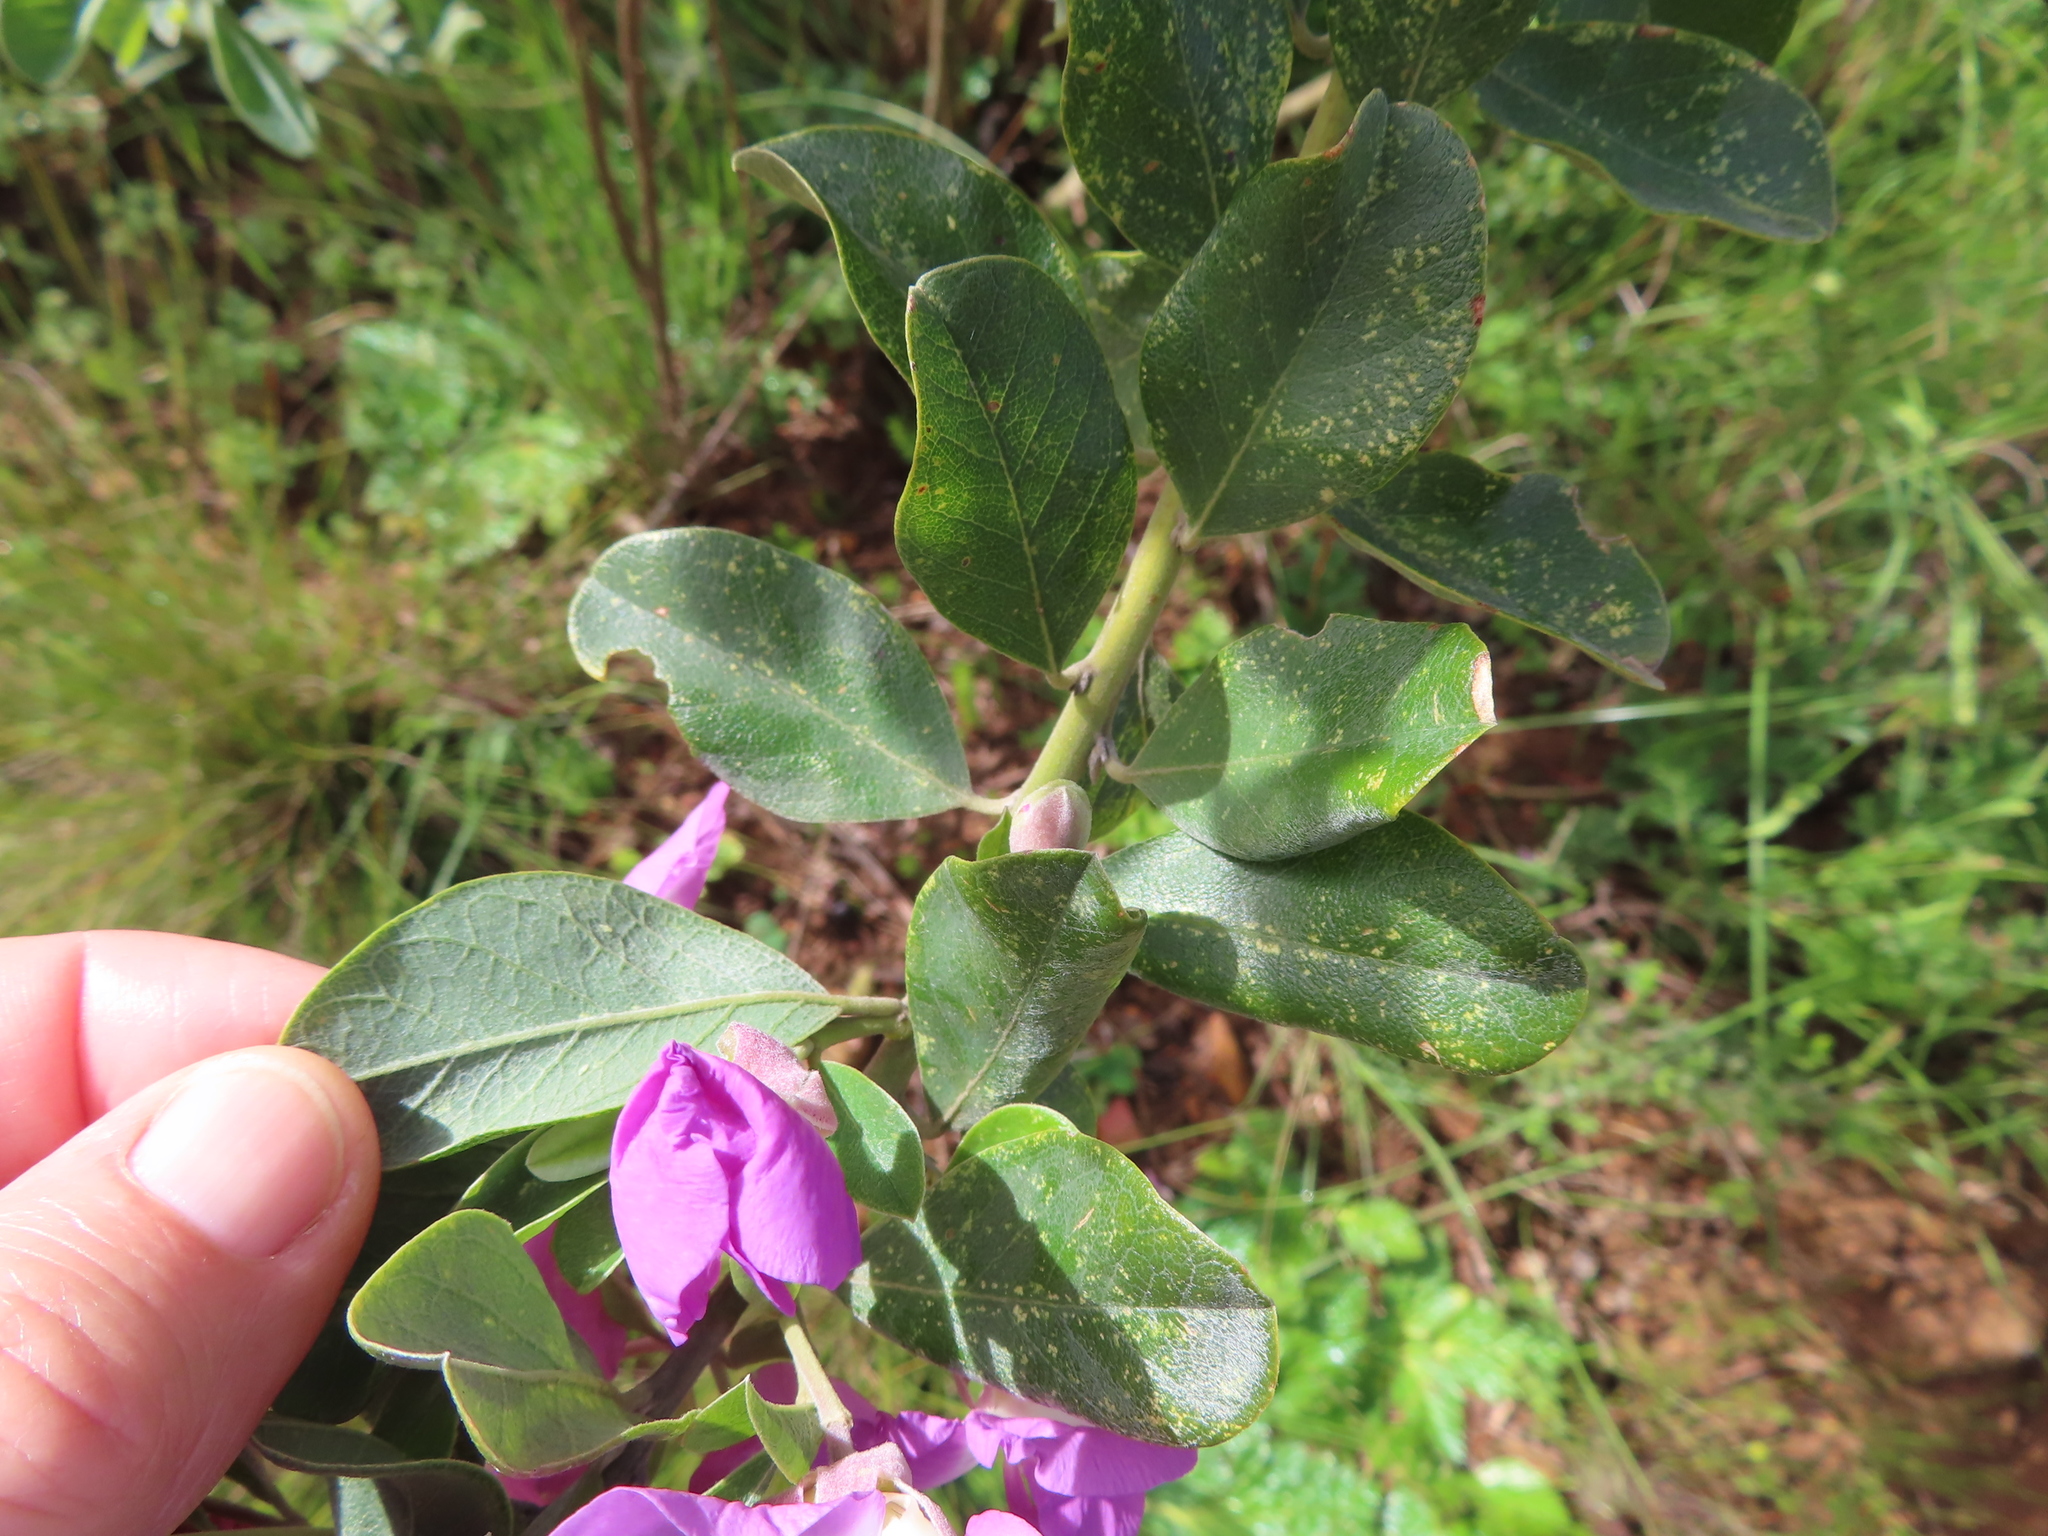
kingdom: Plantae
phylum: Tracheophyta
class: Magnoliopsida
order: Fabales
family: Fabaceae
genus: Podalyria
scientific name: Podalyria calyptrata
